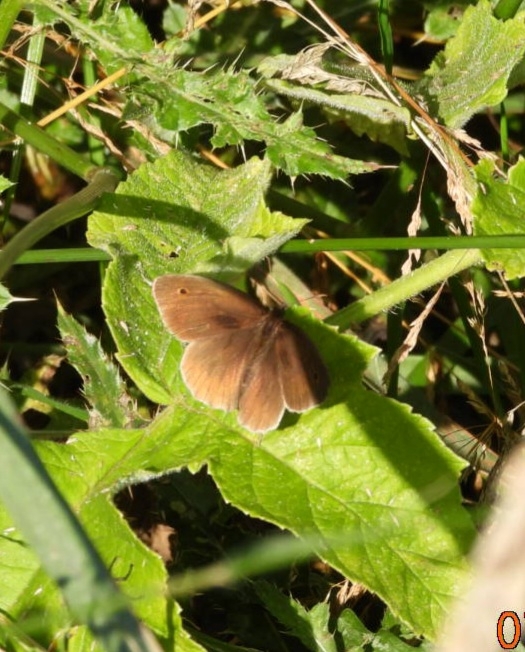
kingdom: Animalia
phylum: Arthropoda
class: Insecta
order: Lepidoptera
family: Nymphalidae
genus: Maniola
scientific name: Maniola jurtina
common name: Meadow brown
